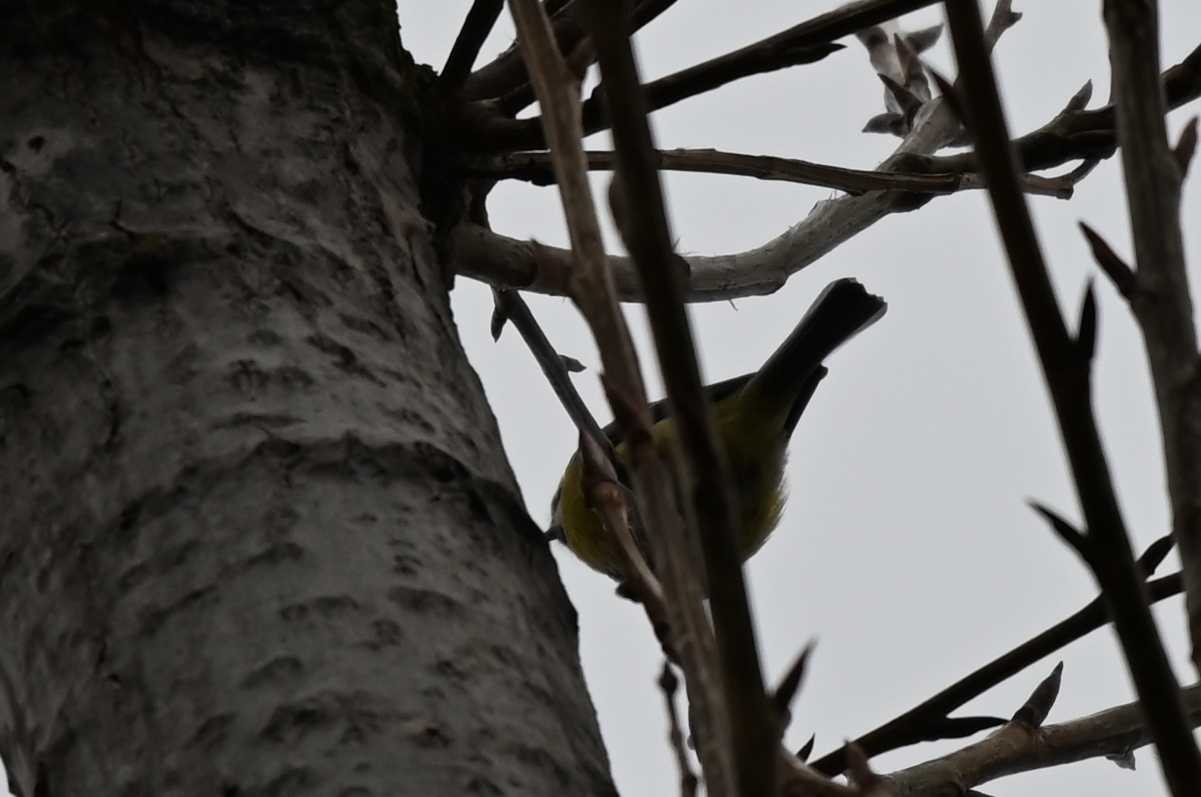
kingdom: Animalia
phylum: Chordata
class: Aves
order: Passeriformes
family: Paridae
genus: Cyanistes
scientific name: Cyanistes caeruleus
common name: Eurasian blue tit
